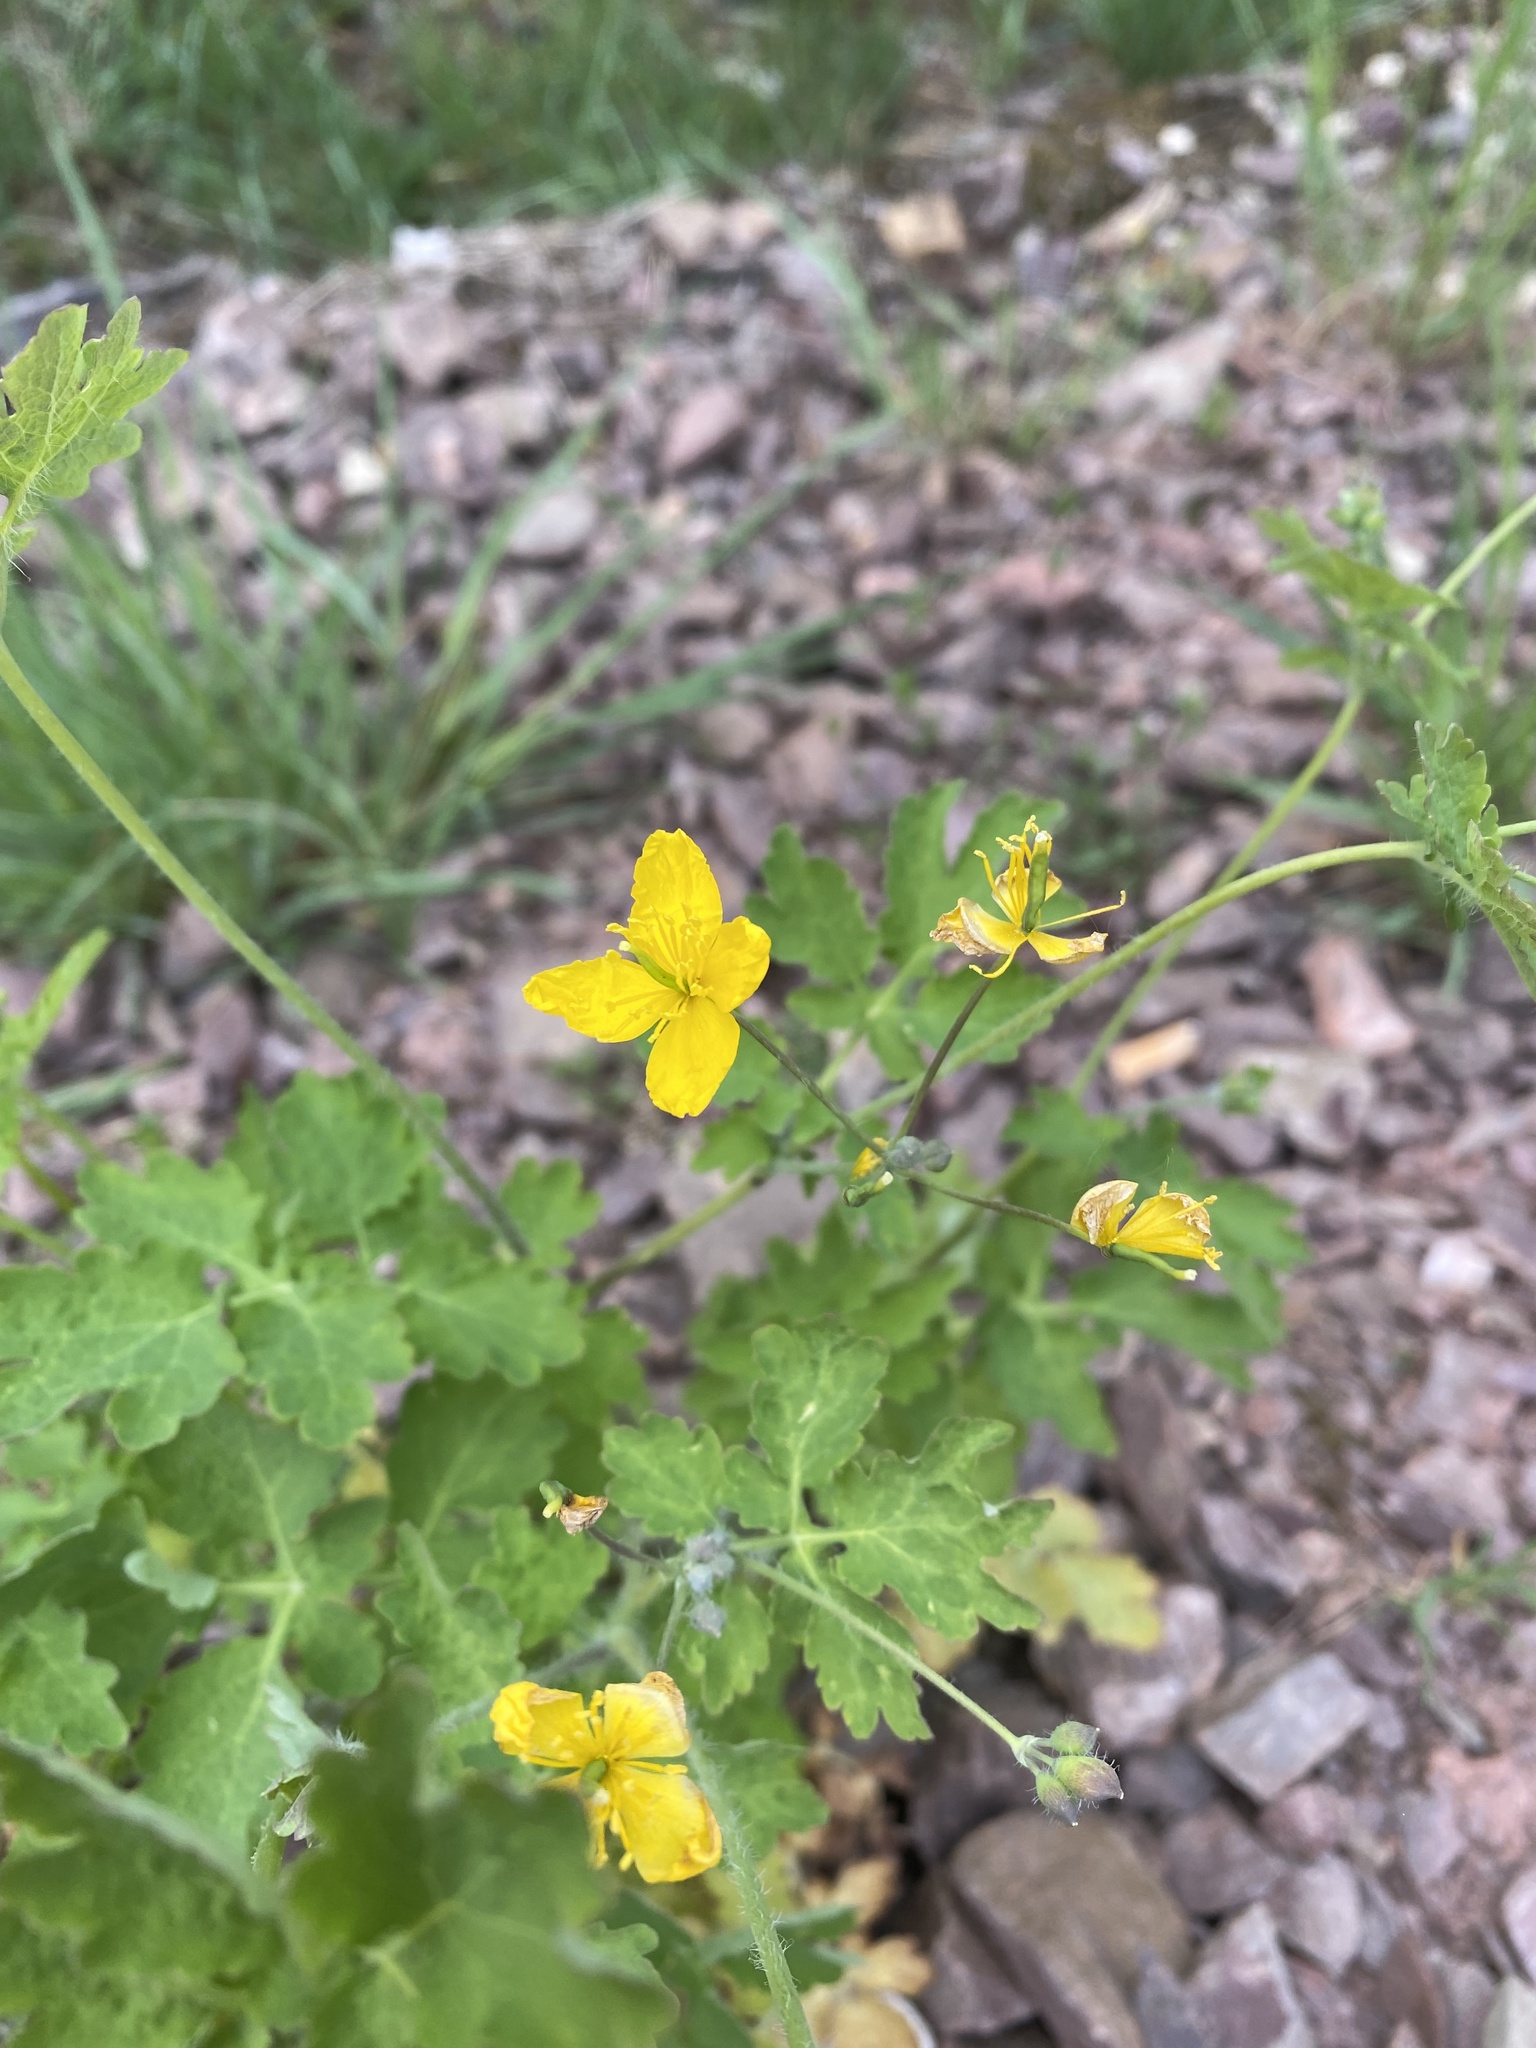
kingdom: Plantae
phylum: Tracheophyta
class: Magnoliopsida
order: Ranunculales
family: Papaveraceae
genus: Chelidonium
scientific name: Chelidonium majus
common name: Greater celandine
